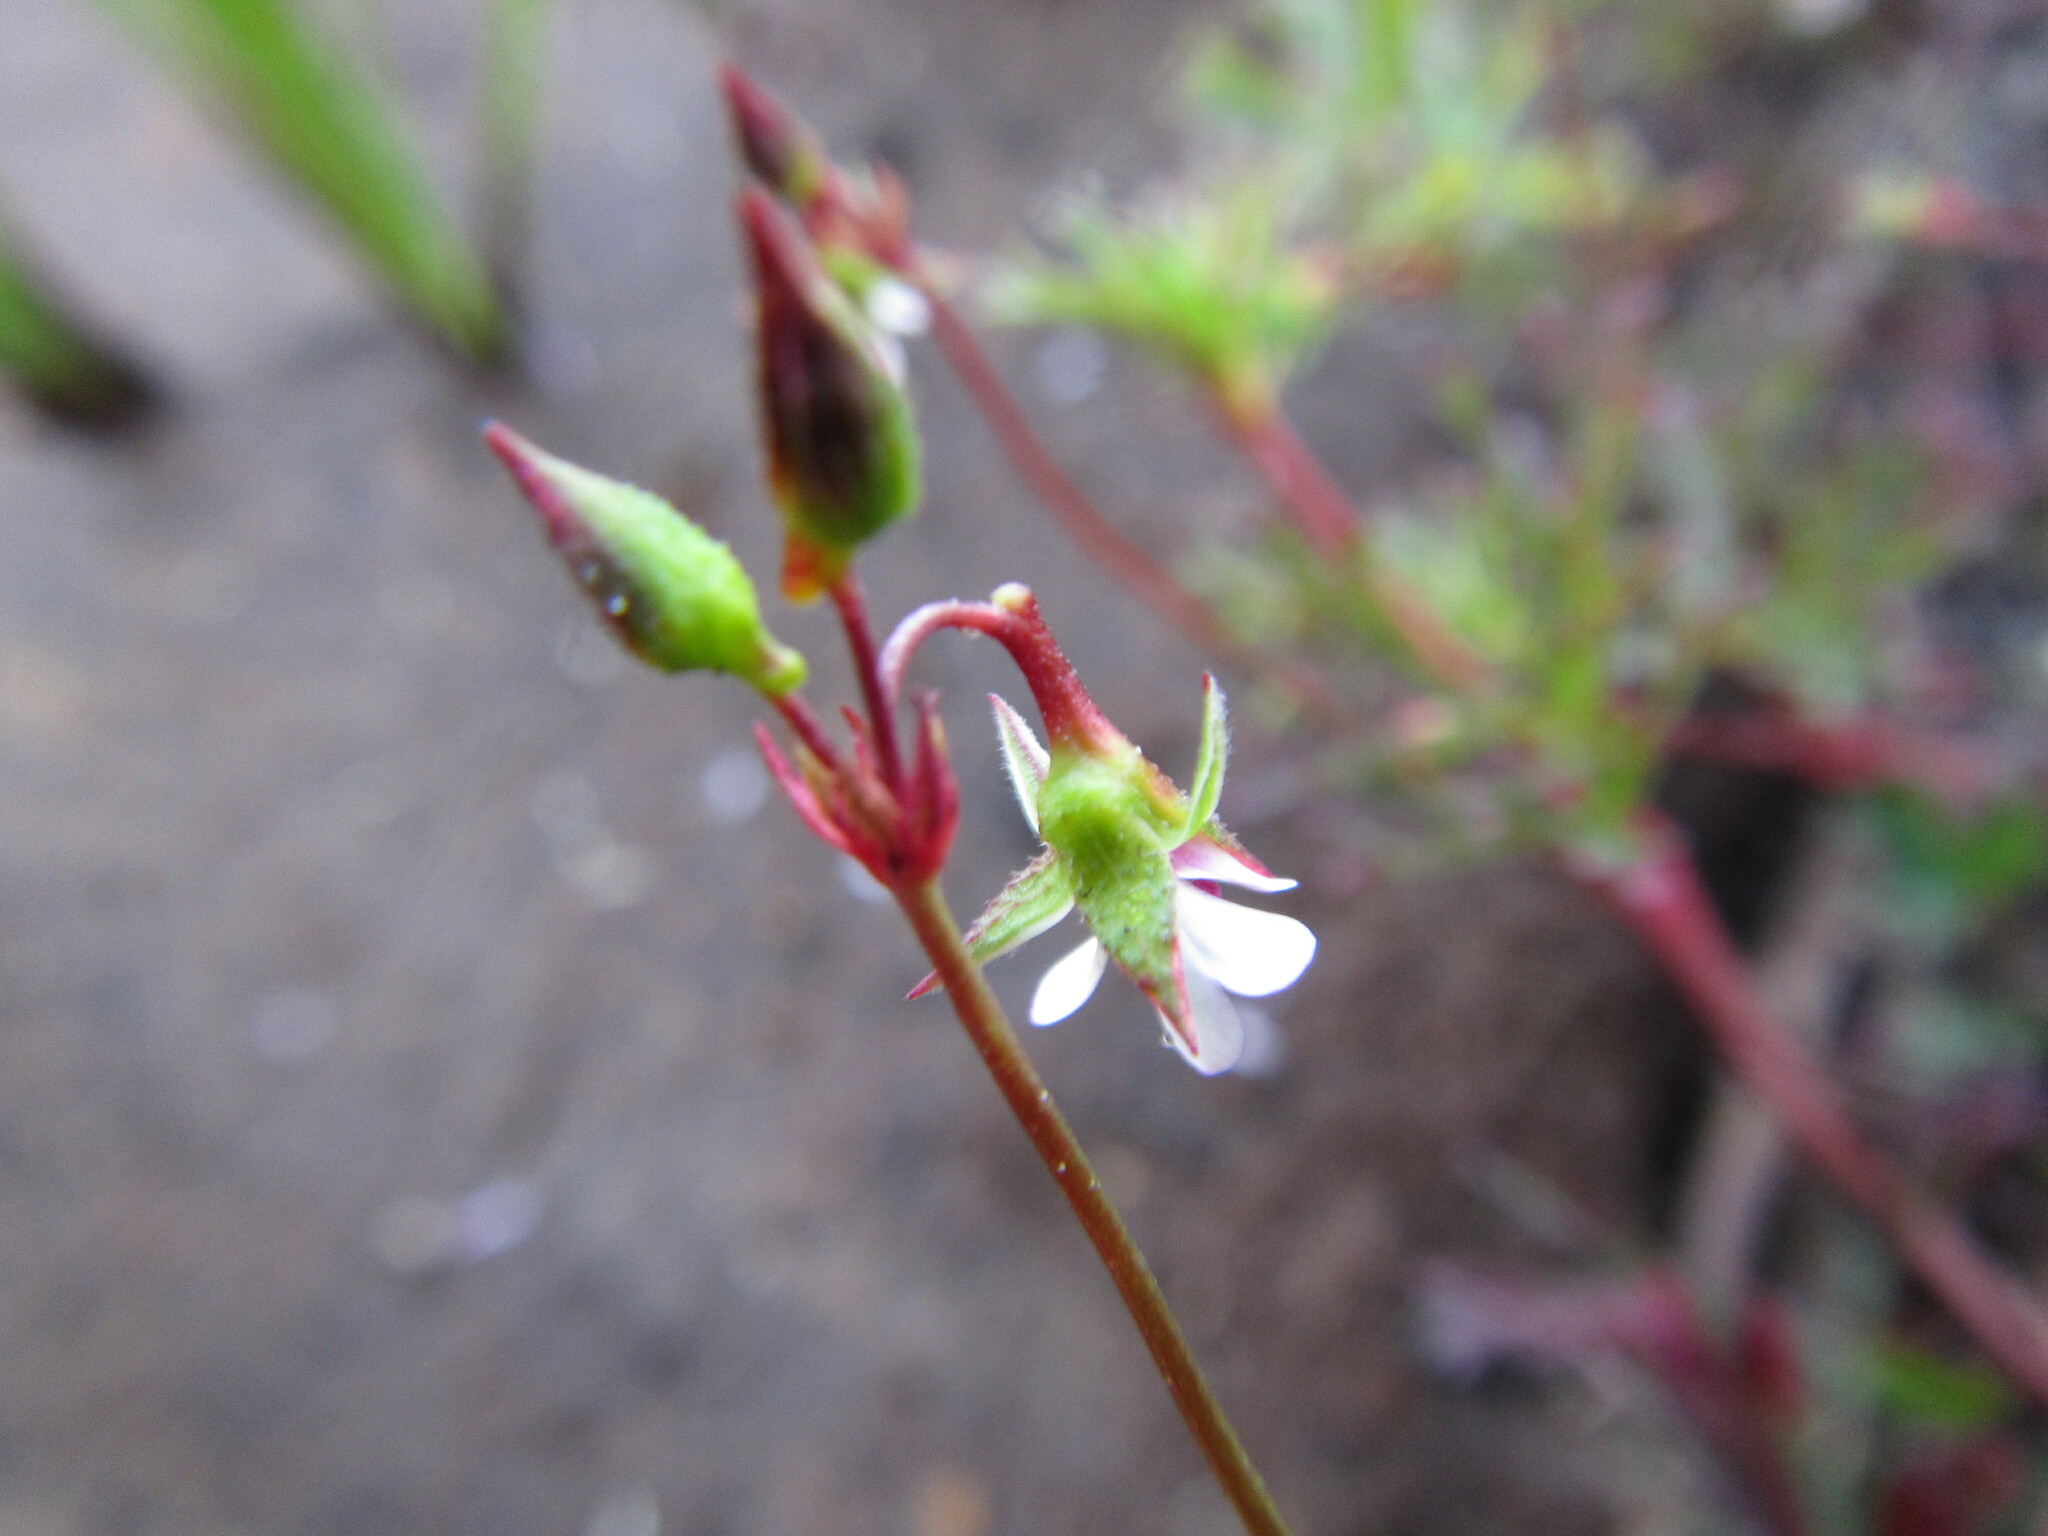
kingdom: Plantae
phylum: Tracheophyta
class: Magnoliopsida
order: Geraniales
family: Geraniaceae
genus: Pelargonium
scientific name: Pelargonium grossularioides
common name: Gooseberry geranium
